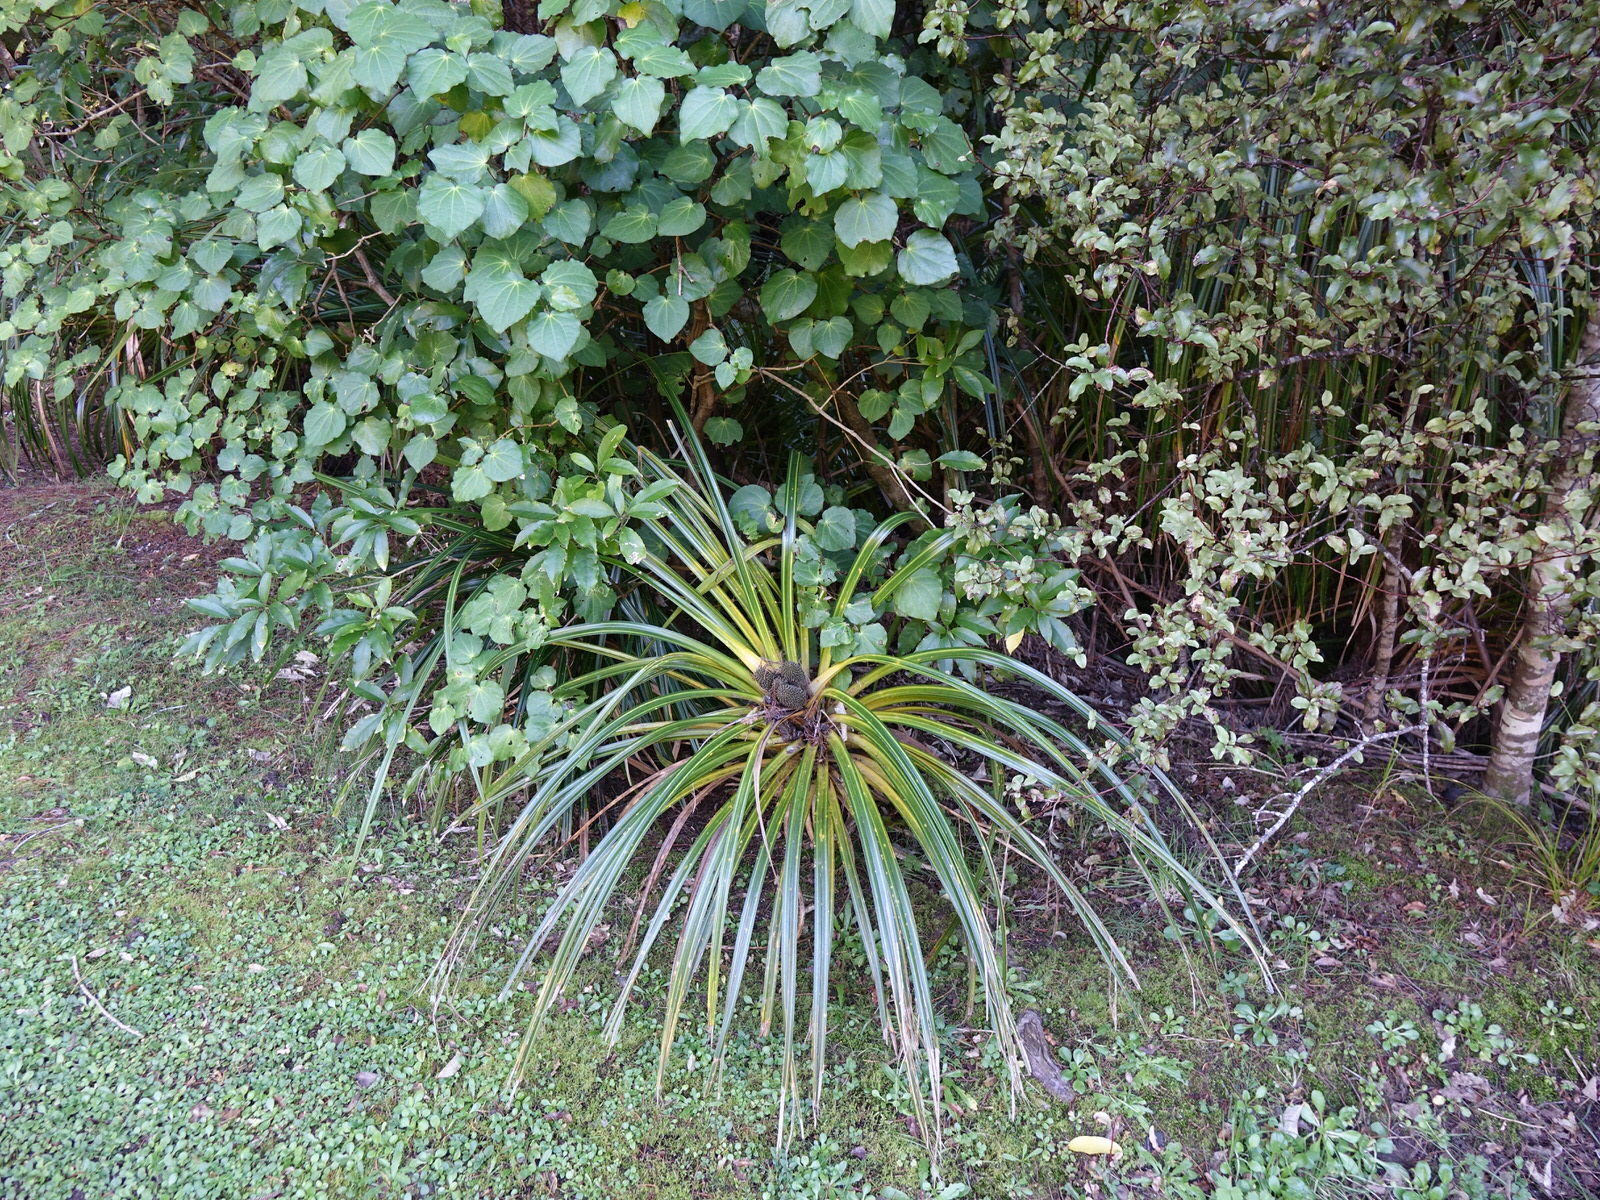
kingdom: Plantae
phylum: Tracheophyta
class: Liliopsida
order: Pandanales
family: Pandanaceae
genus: Freycinetia
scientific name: Freycinetia banksii
